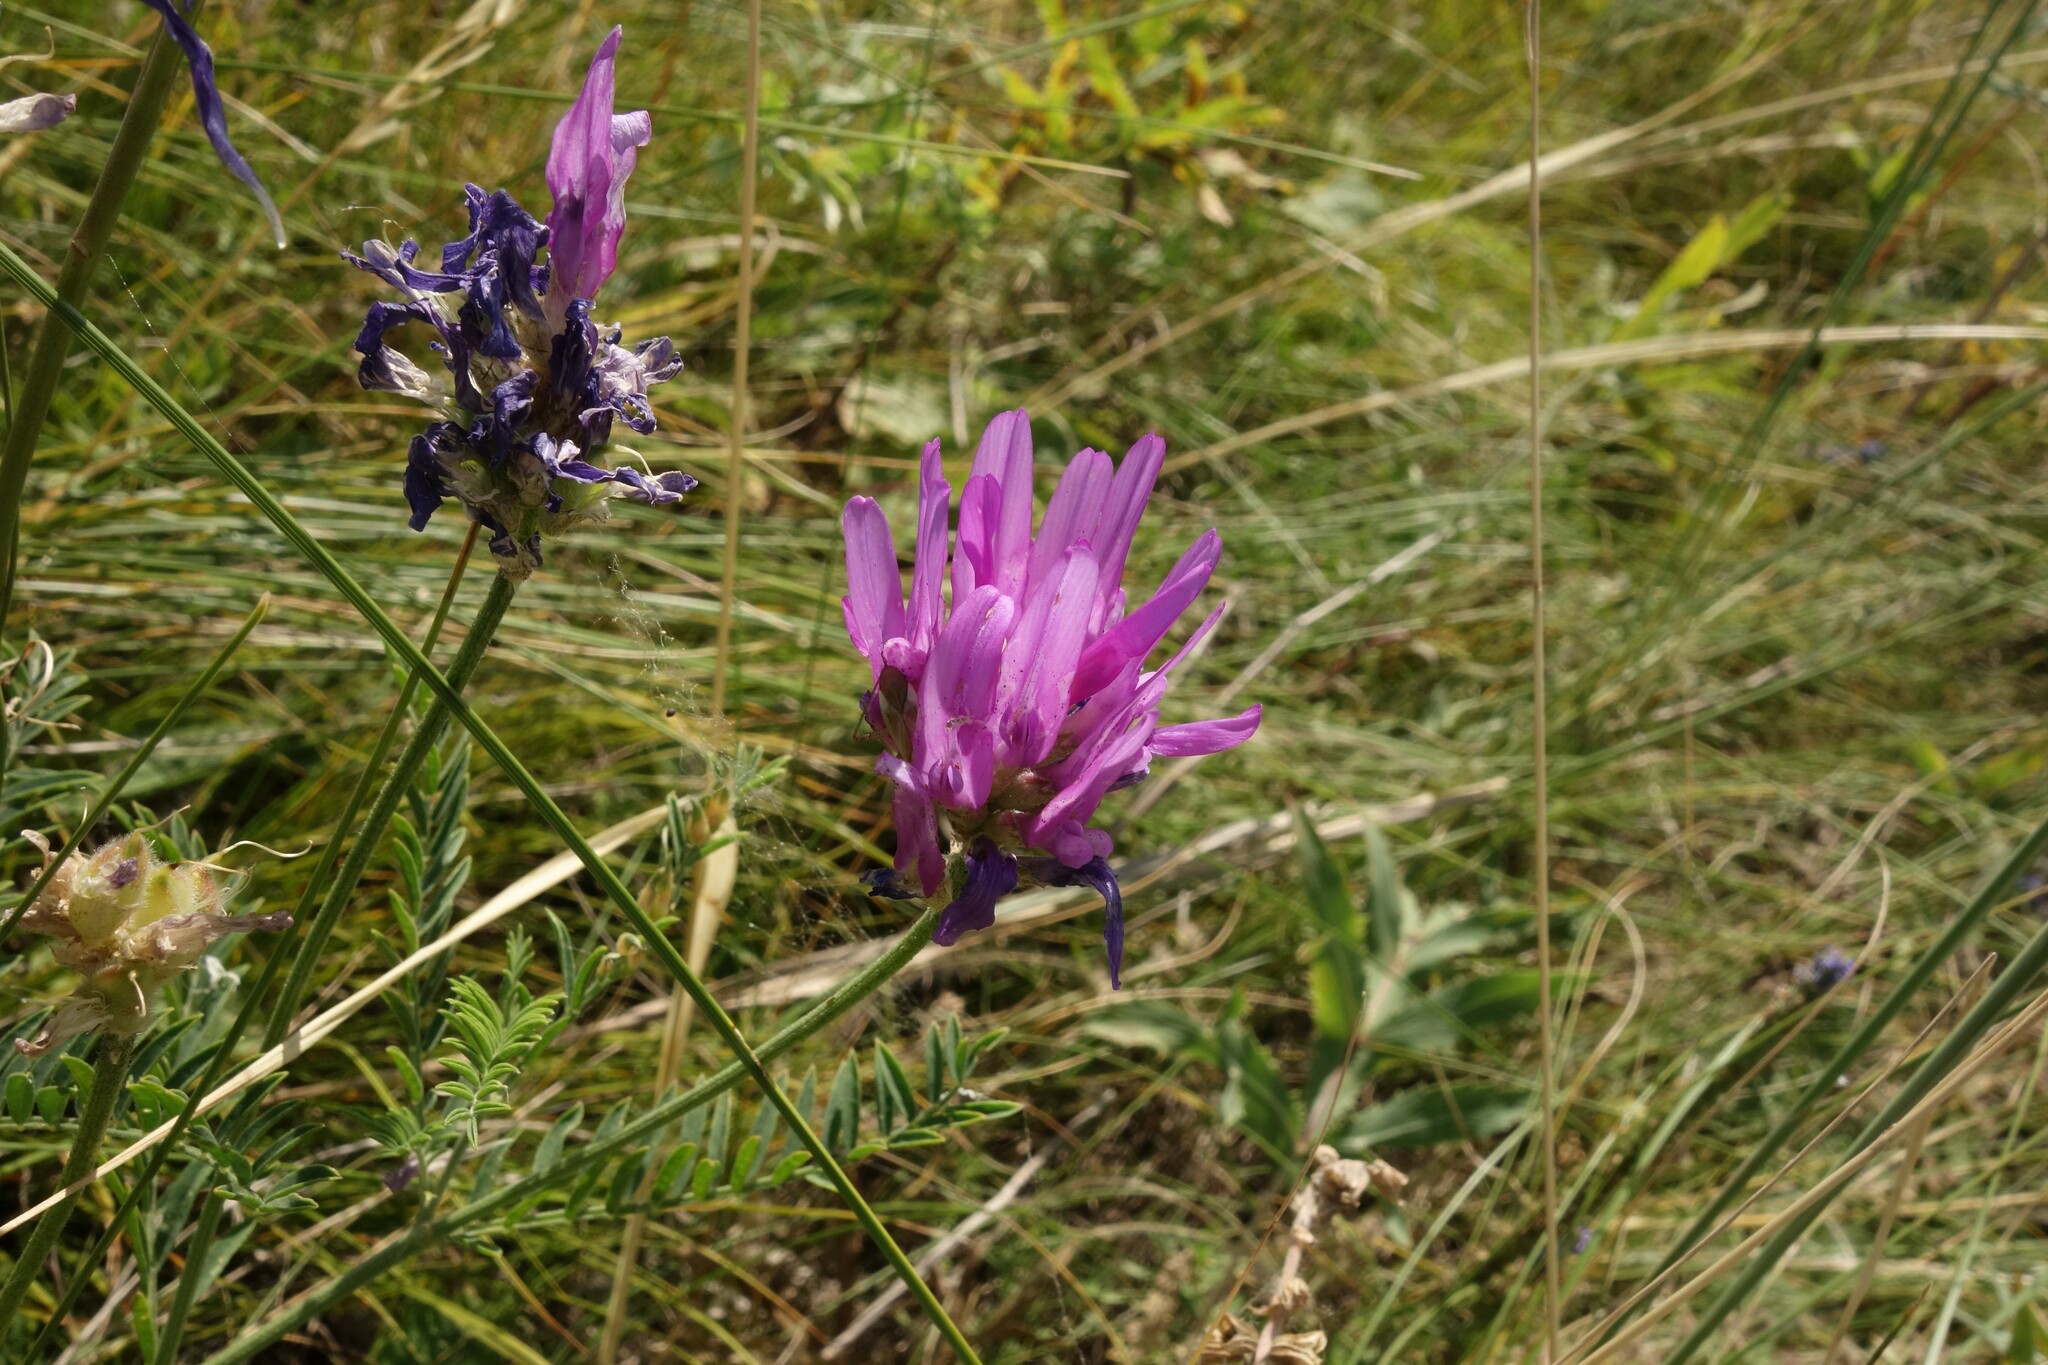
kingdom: Plantae
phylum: Tracheophyta
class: Magnoliopsida
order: Fabales
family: Fabaceae
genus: Astragalus
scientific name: Astragalus onobrychis
